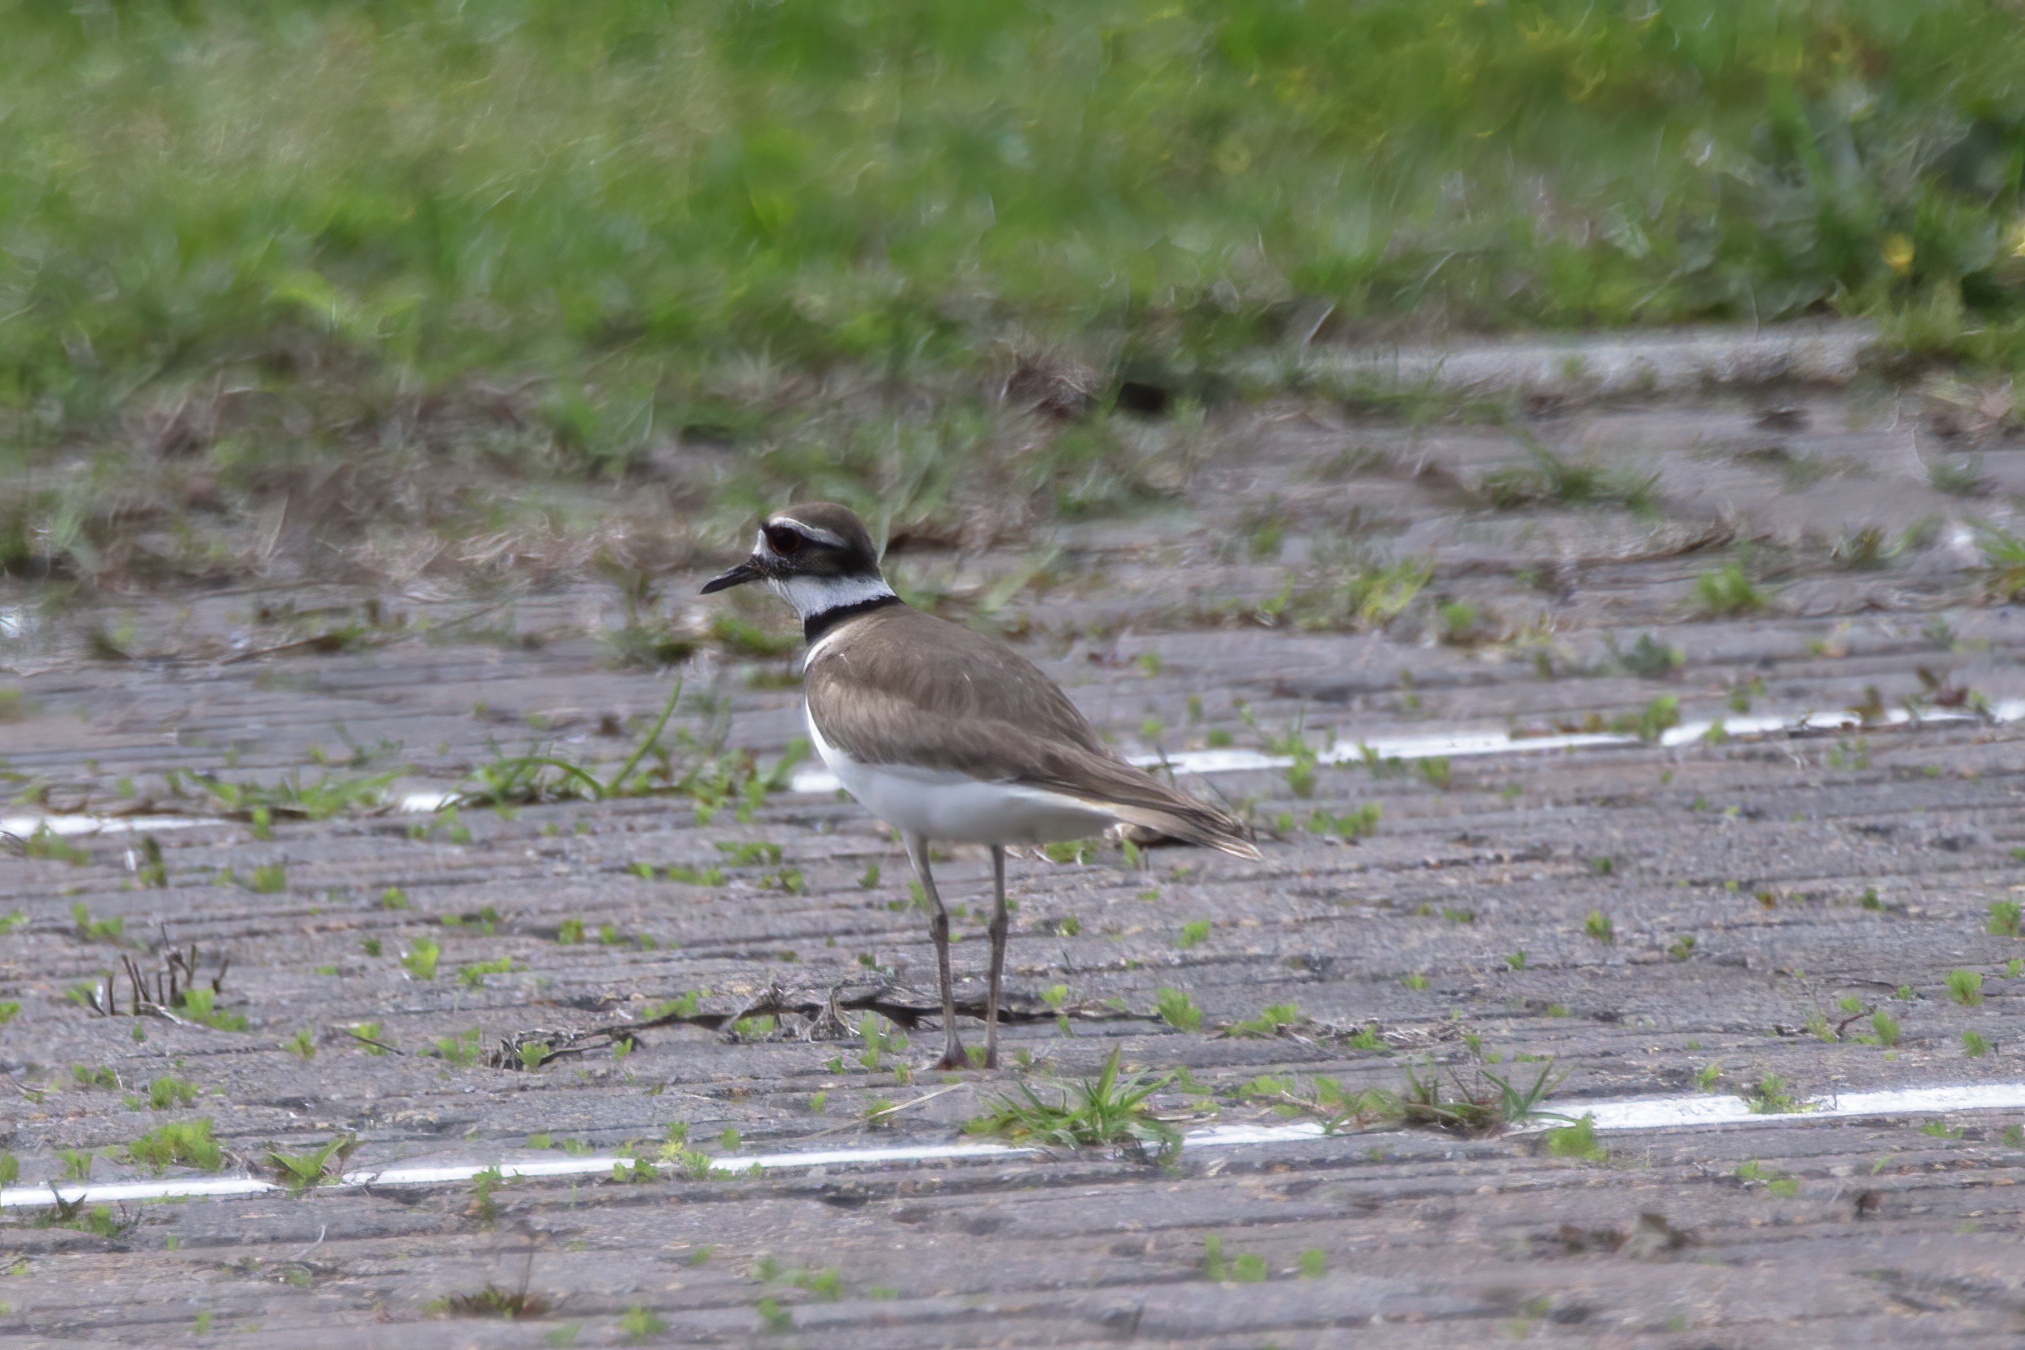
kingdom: Animalia
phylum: Chordata
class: Aves
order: Charadriiformes
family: Charadriidae
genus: Charadrius
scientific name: Charadrius vociferus
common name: Killdeer
